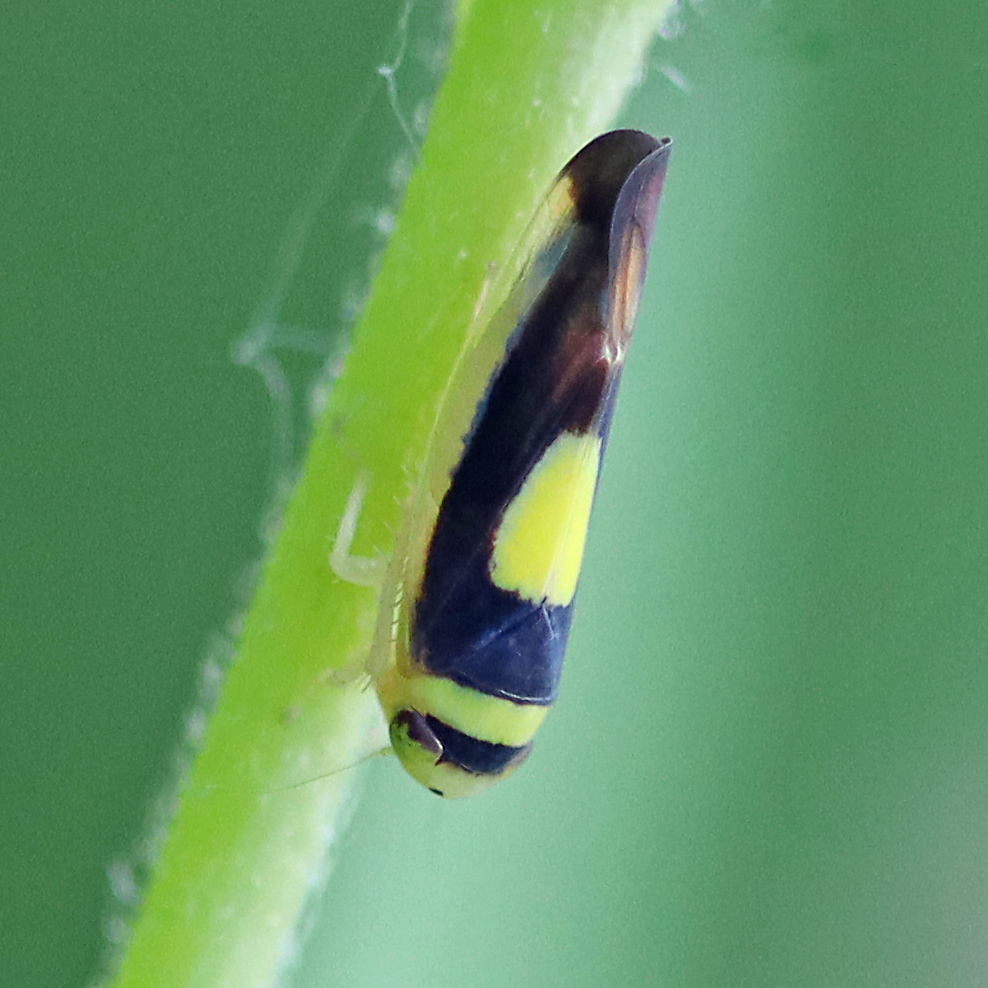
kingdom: Animalia
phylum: Arthropoda
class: Insecta
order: Hemiptera
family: Cicadellidae
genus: Colladonus
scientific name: Colladonus clitellarius
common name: The saddleback leafhopper
